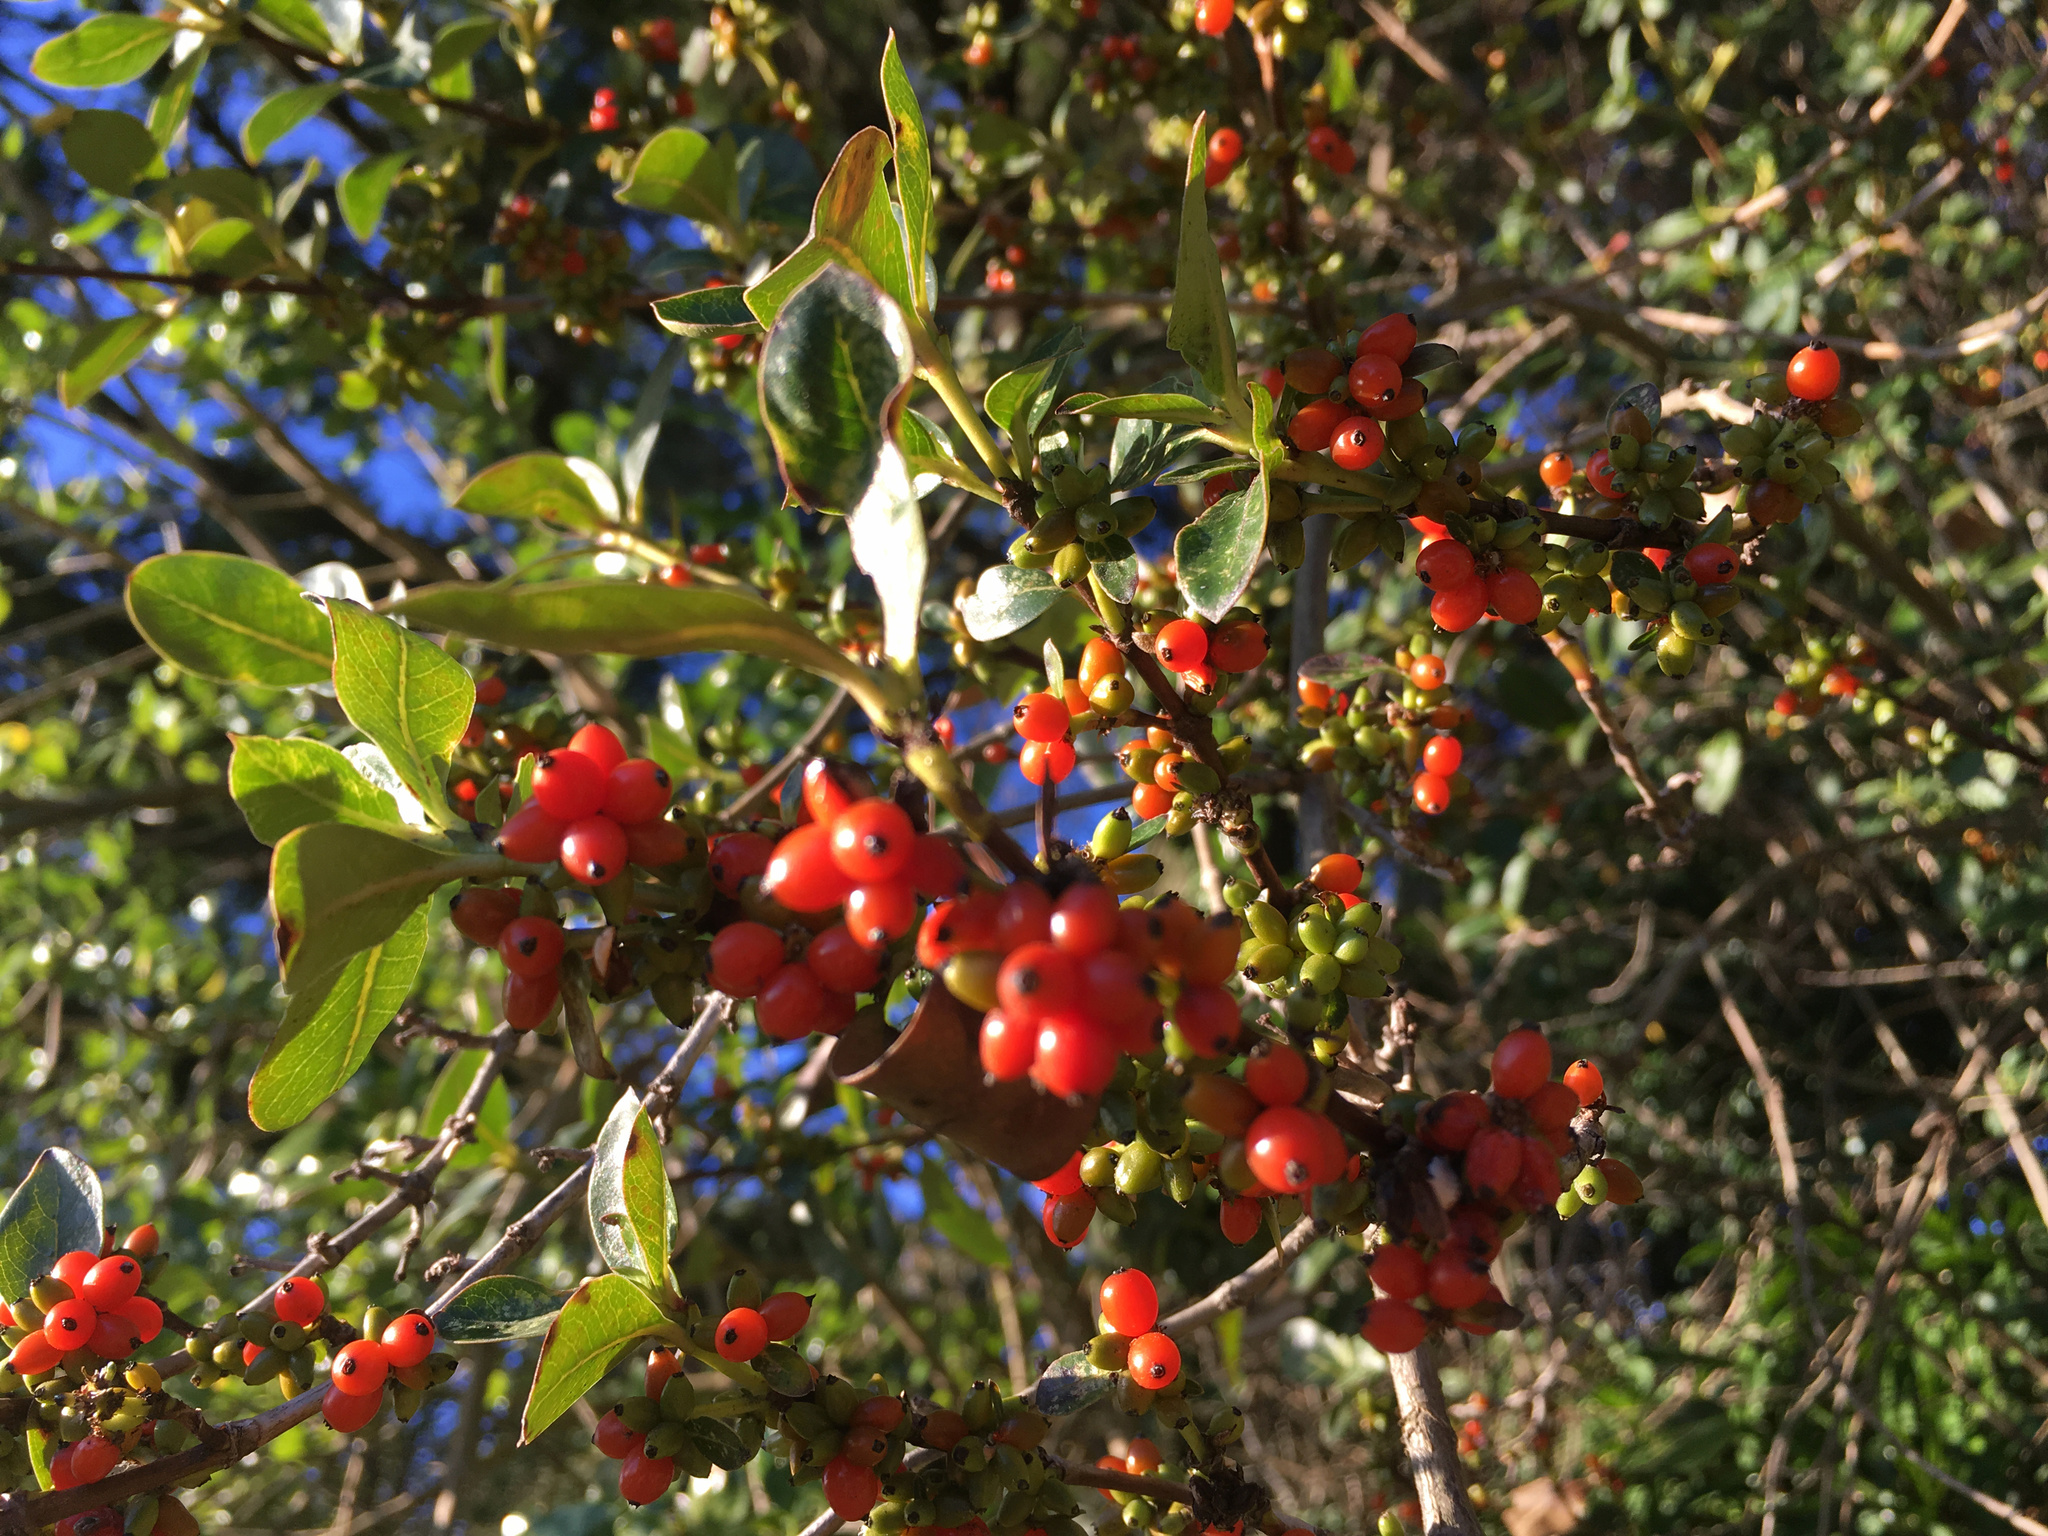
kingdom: Plantae
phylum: Tracheophyta
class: Magnoliopsida
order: Gentianales
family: Rubiaceae
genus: Coprosma
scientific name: Coprosma robusta
